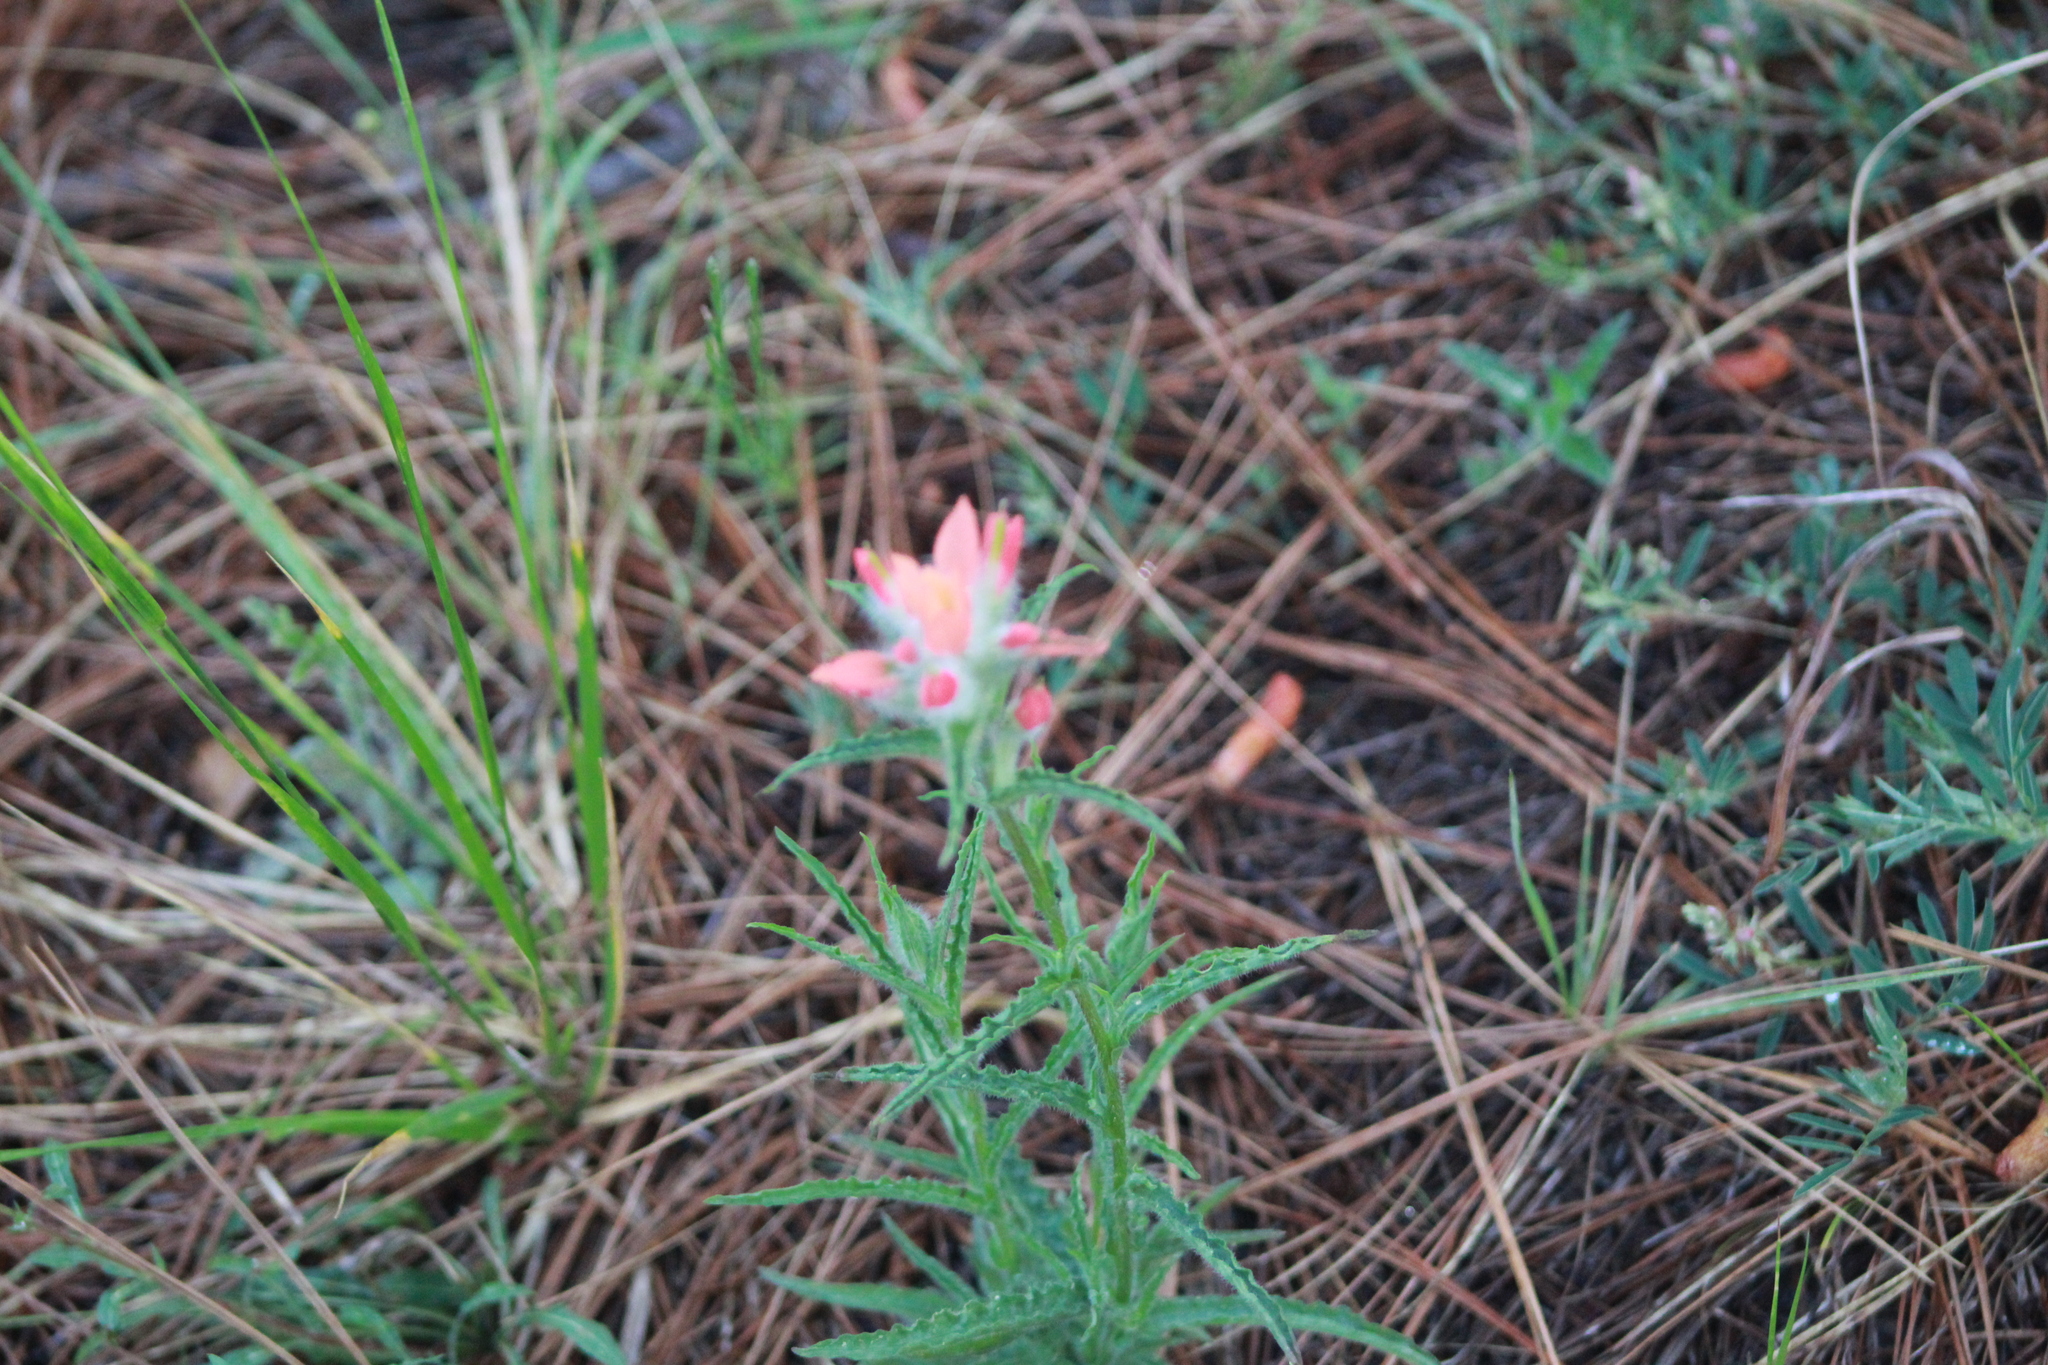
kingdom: Plantae
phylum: Tracheophyta
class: Magnoliopsida
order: Lamiales
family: Orobanchaceae
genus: Castilleja
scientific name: Castilleja scorzonerifolia
